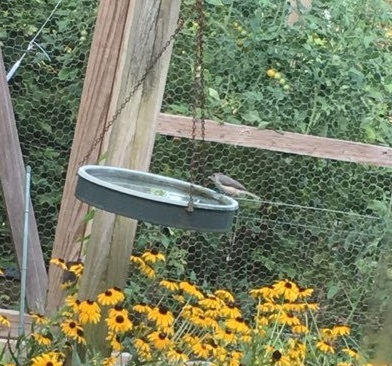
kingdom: Animalia
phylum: Chordata
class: Aves
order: Passeriformes
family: Paridae
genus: Baeolophus
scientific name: Baeolophus bicolor
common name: Tufted titmouse
